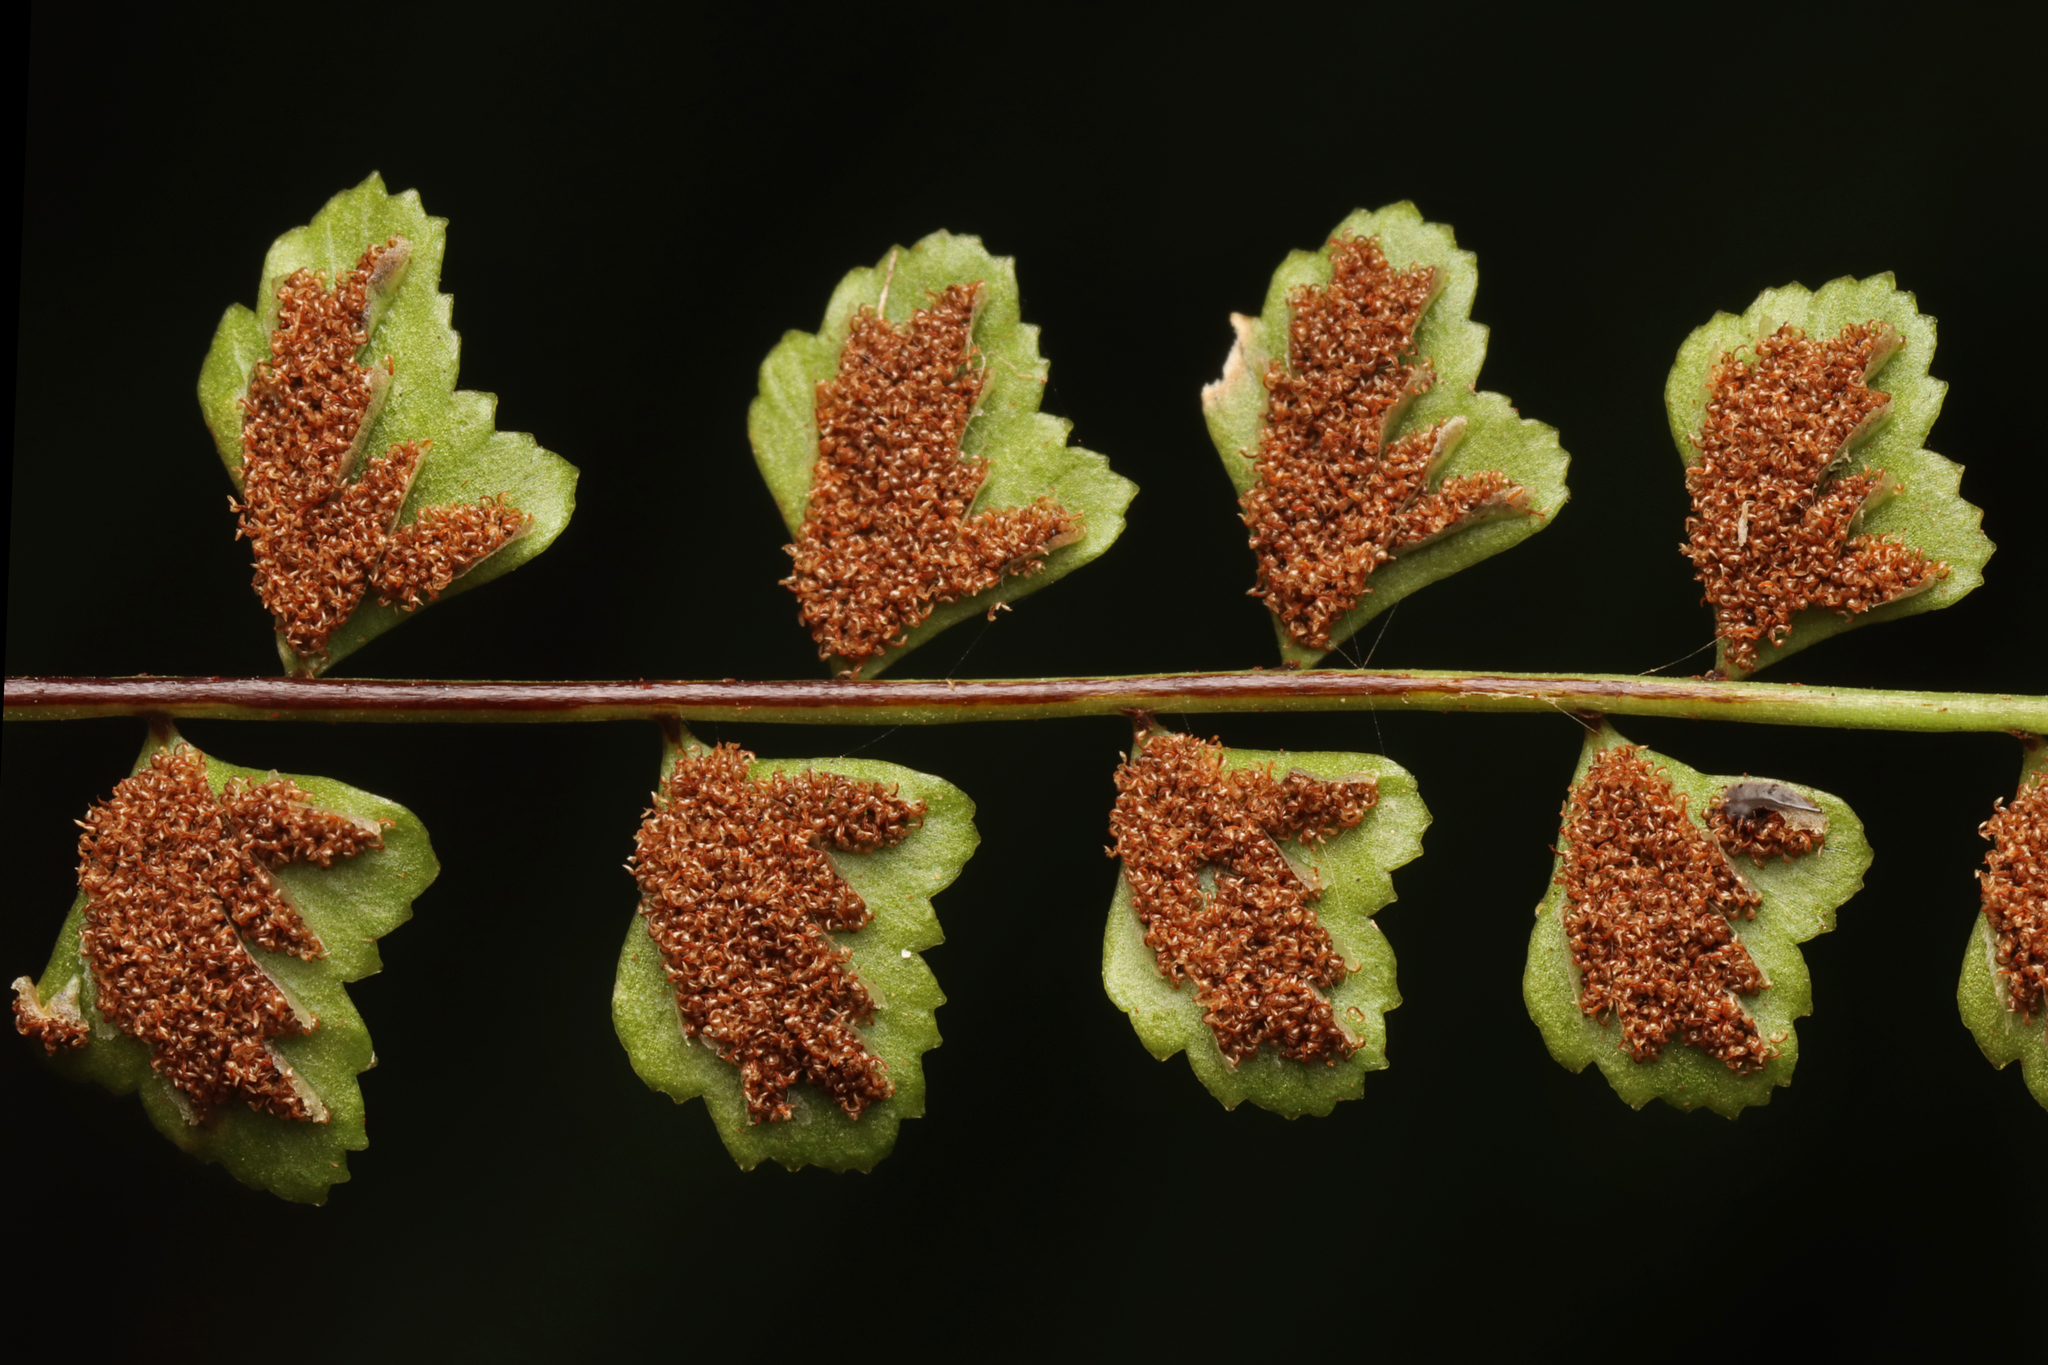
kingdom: Plantae
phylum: Tracheophyta
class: Polypodiopsida
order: Polypodiales
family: Aspleniaceae
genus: Asplenium
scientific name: Asplenium flabellifolium
